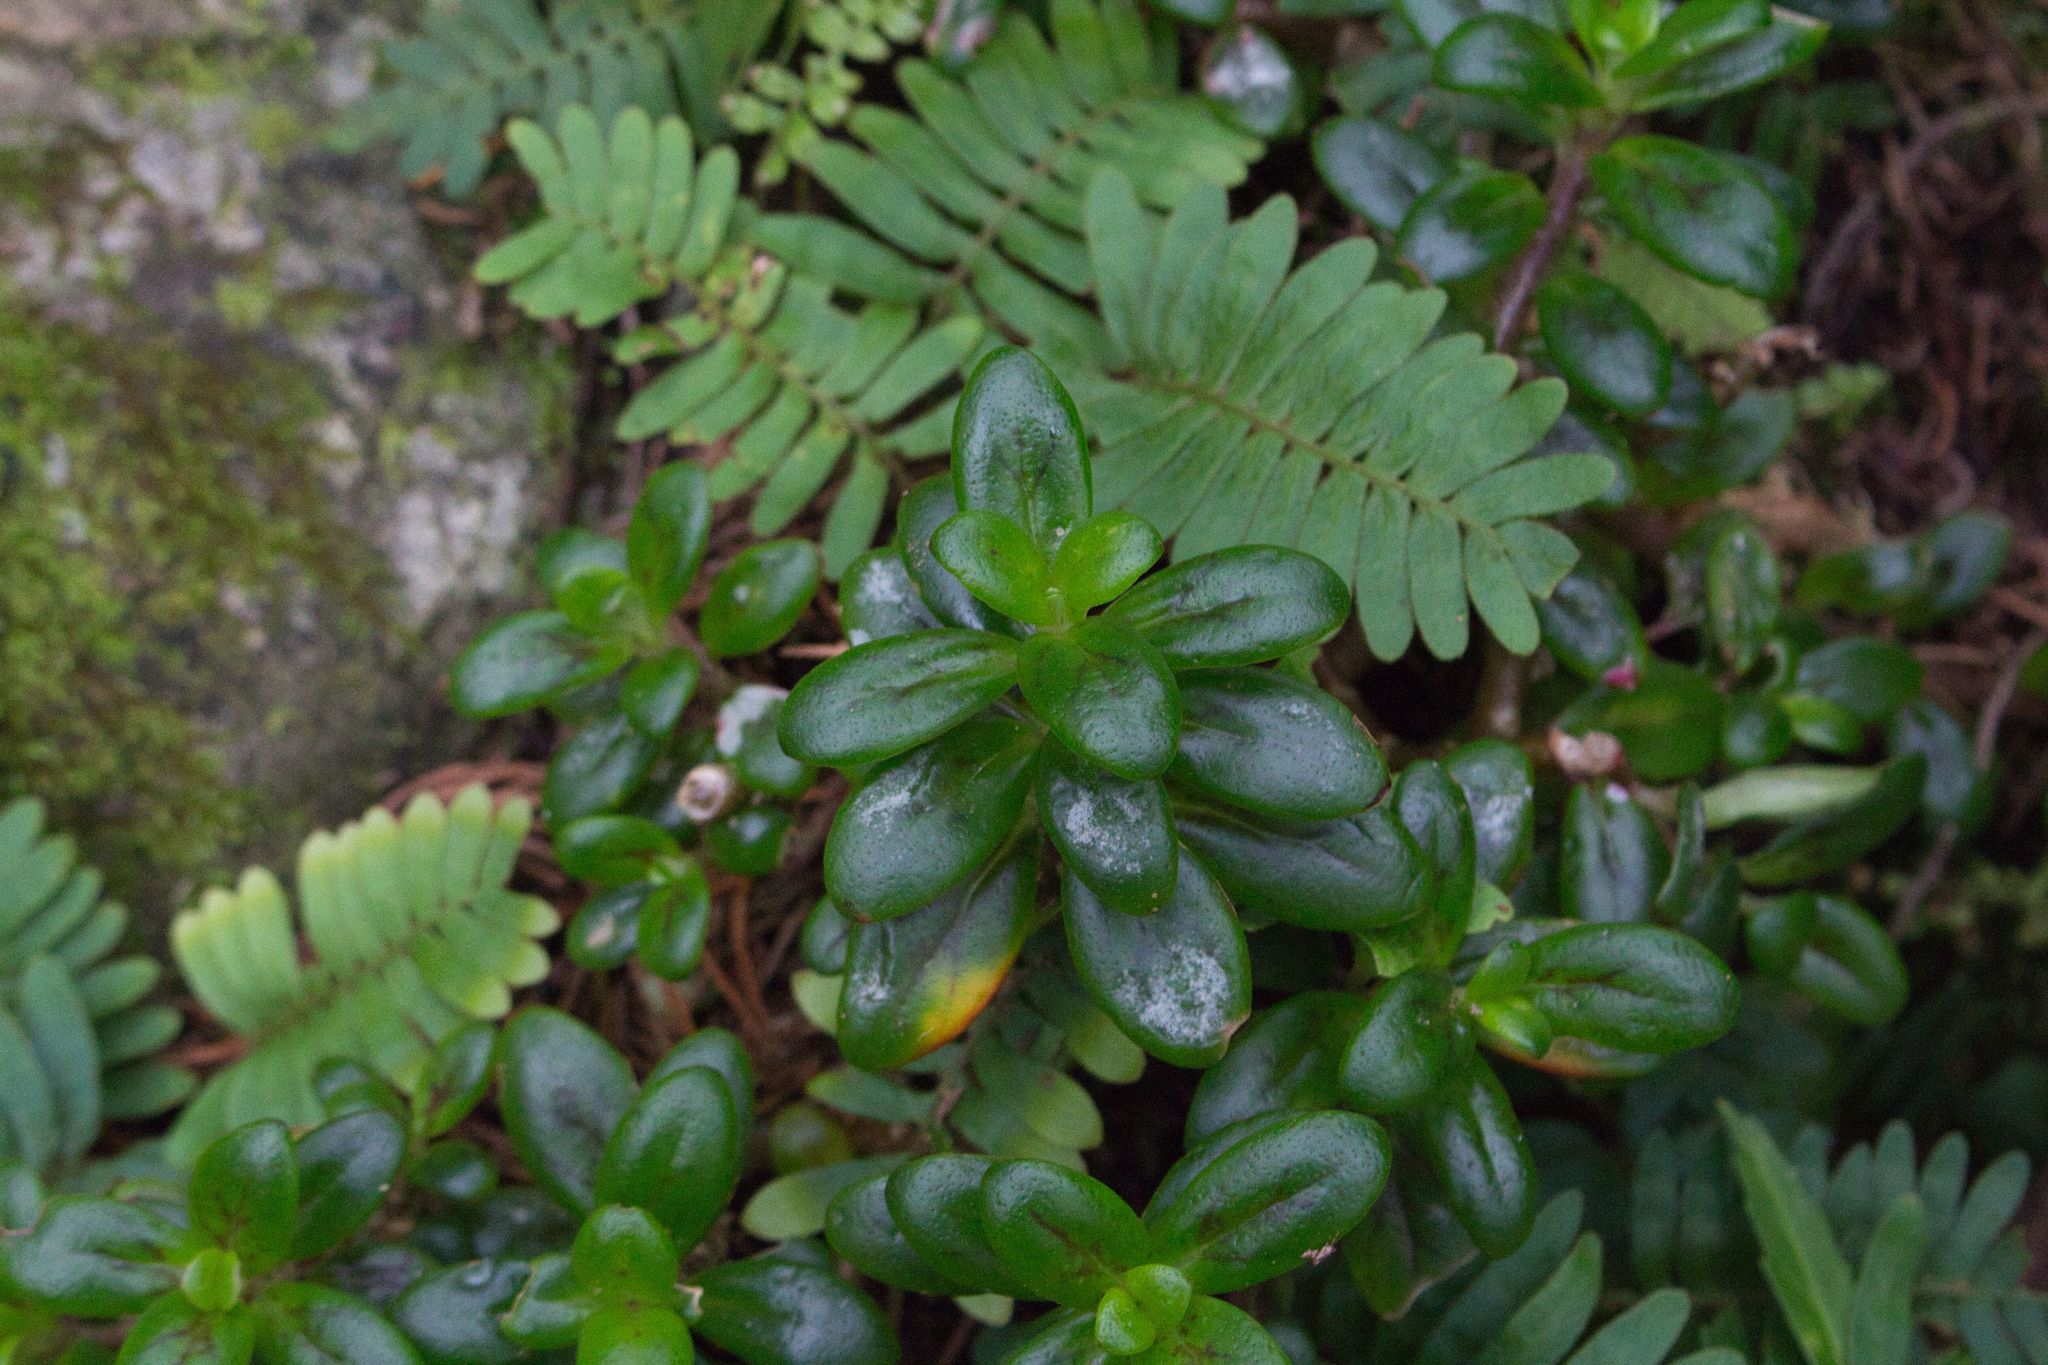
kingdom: Plantae
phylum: Tracheophyta
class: Magnoliopsida
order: Lamiales
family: Gesneriaceae
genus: Columnea
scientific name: Columnea glabra
